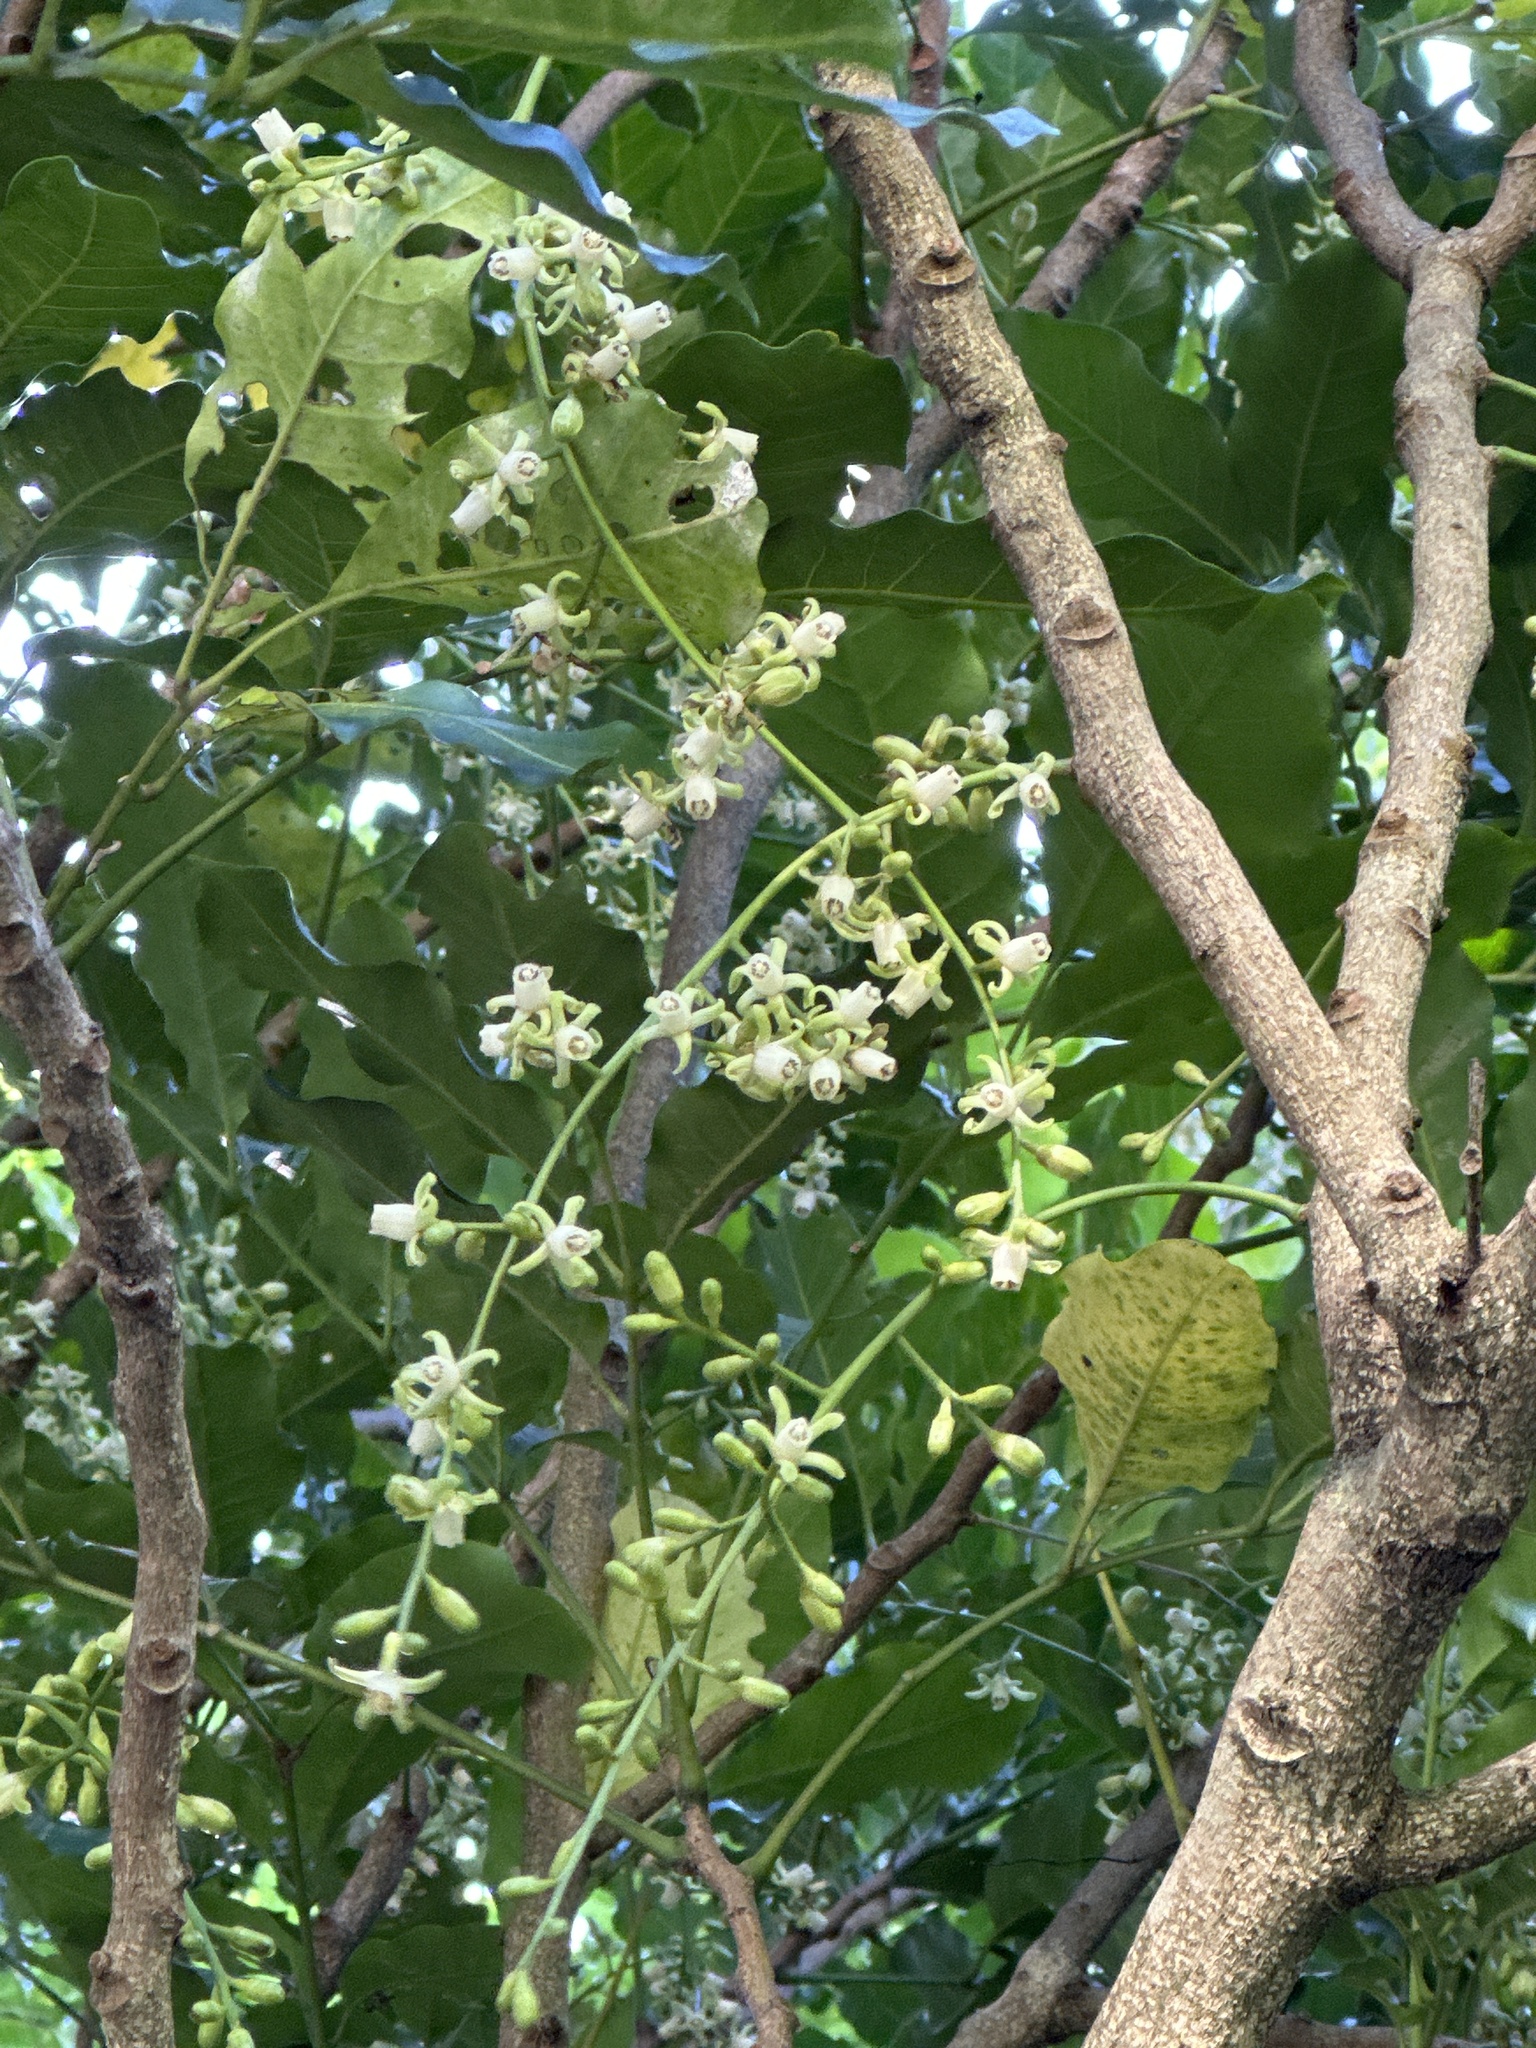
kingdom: Plantae
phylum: Tracheophyta
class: Magnoliopsida
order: Sapindales
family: Meliaceae
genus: Didymocheton
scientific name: Didymocheton spectabilis
